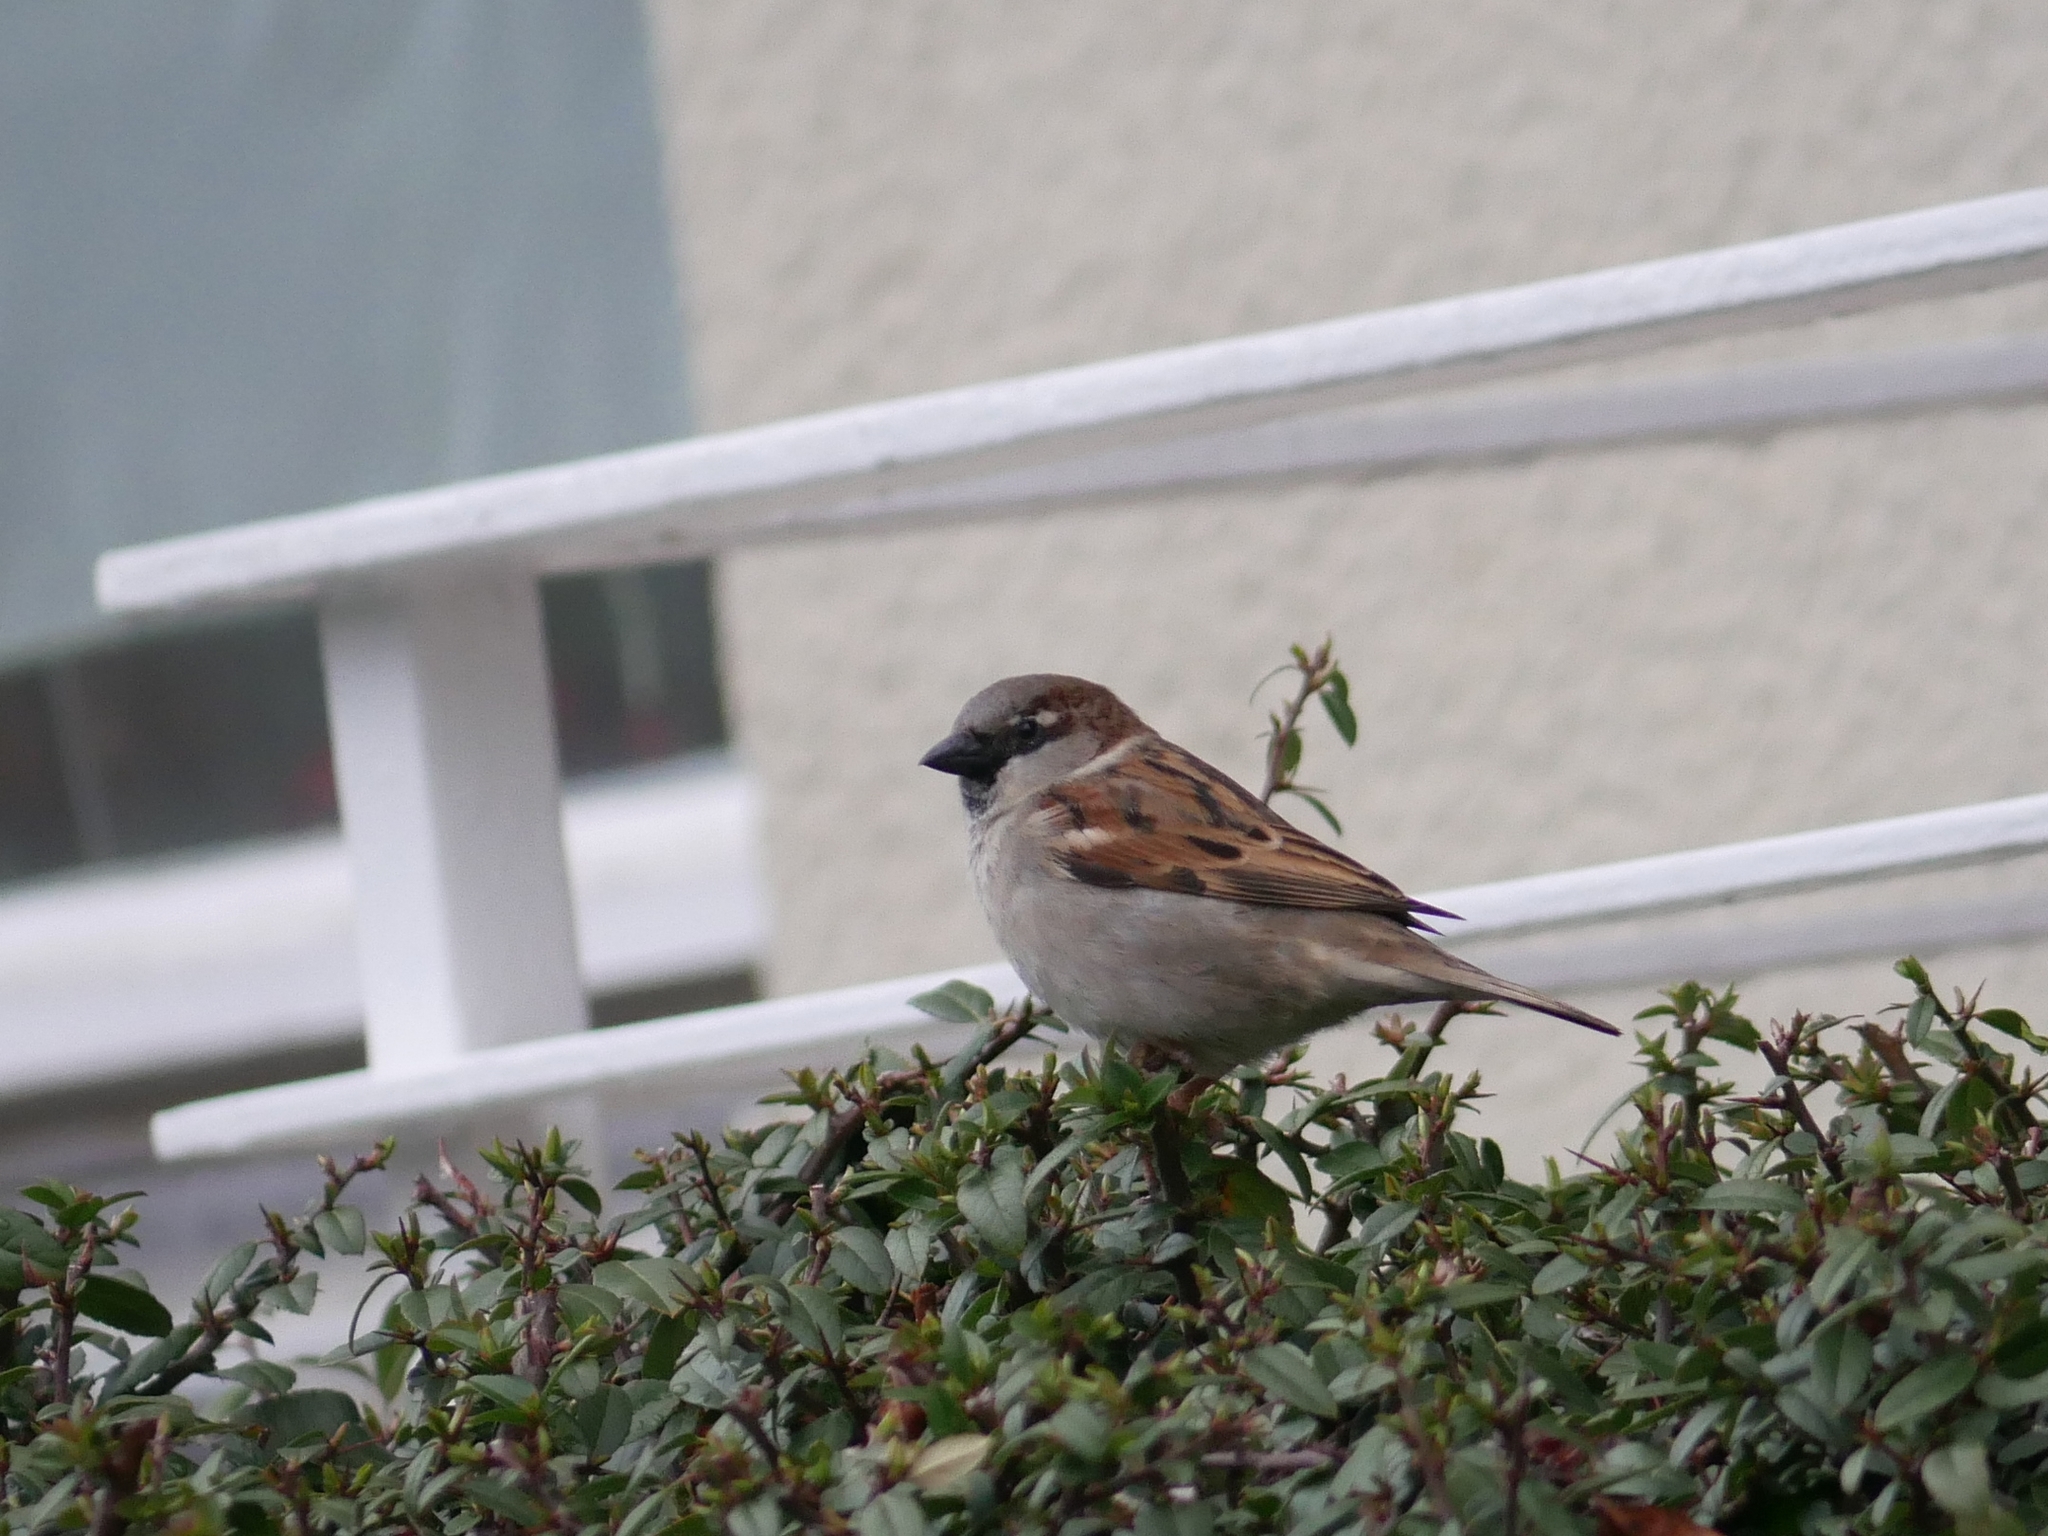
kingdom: Animalia
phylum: Chordata
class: Aves
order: Passeriformes
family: Passeridae
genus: Passer
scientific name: Passer domesticus
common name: House sparrow
